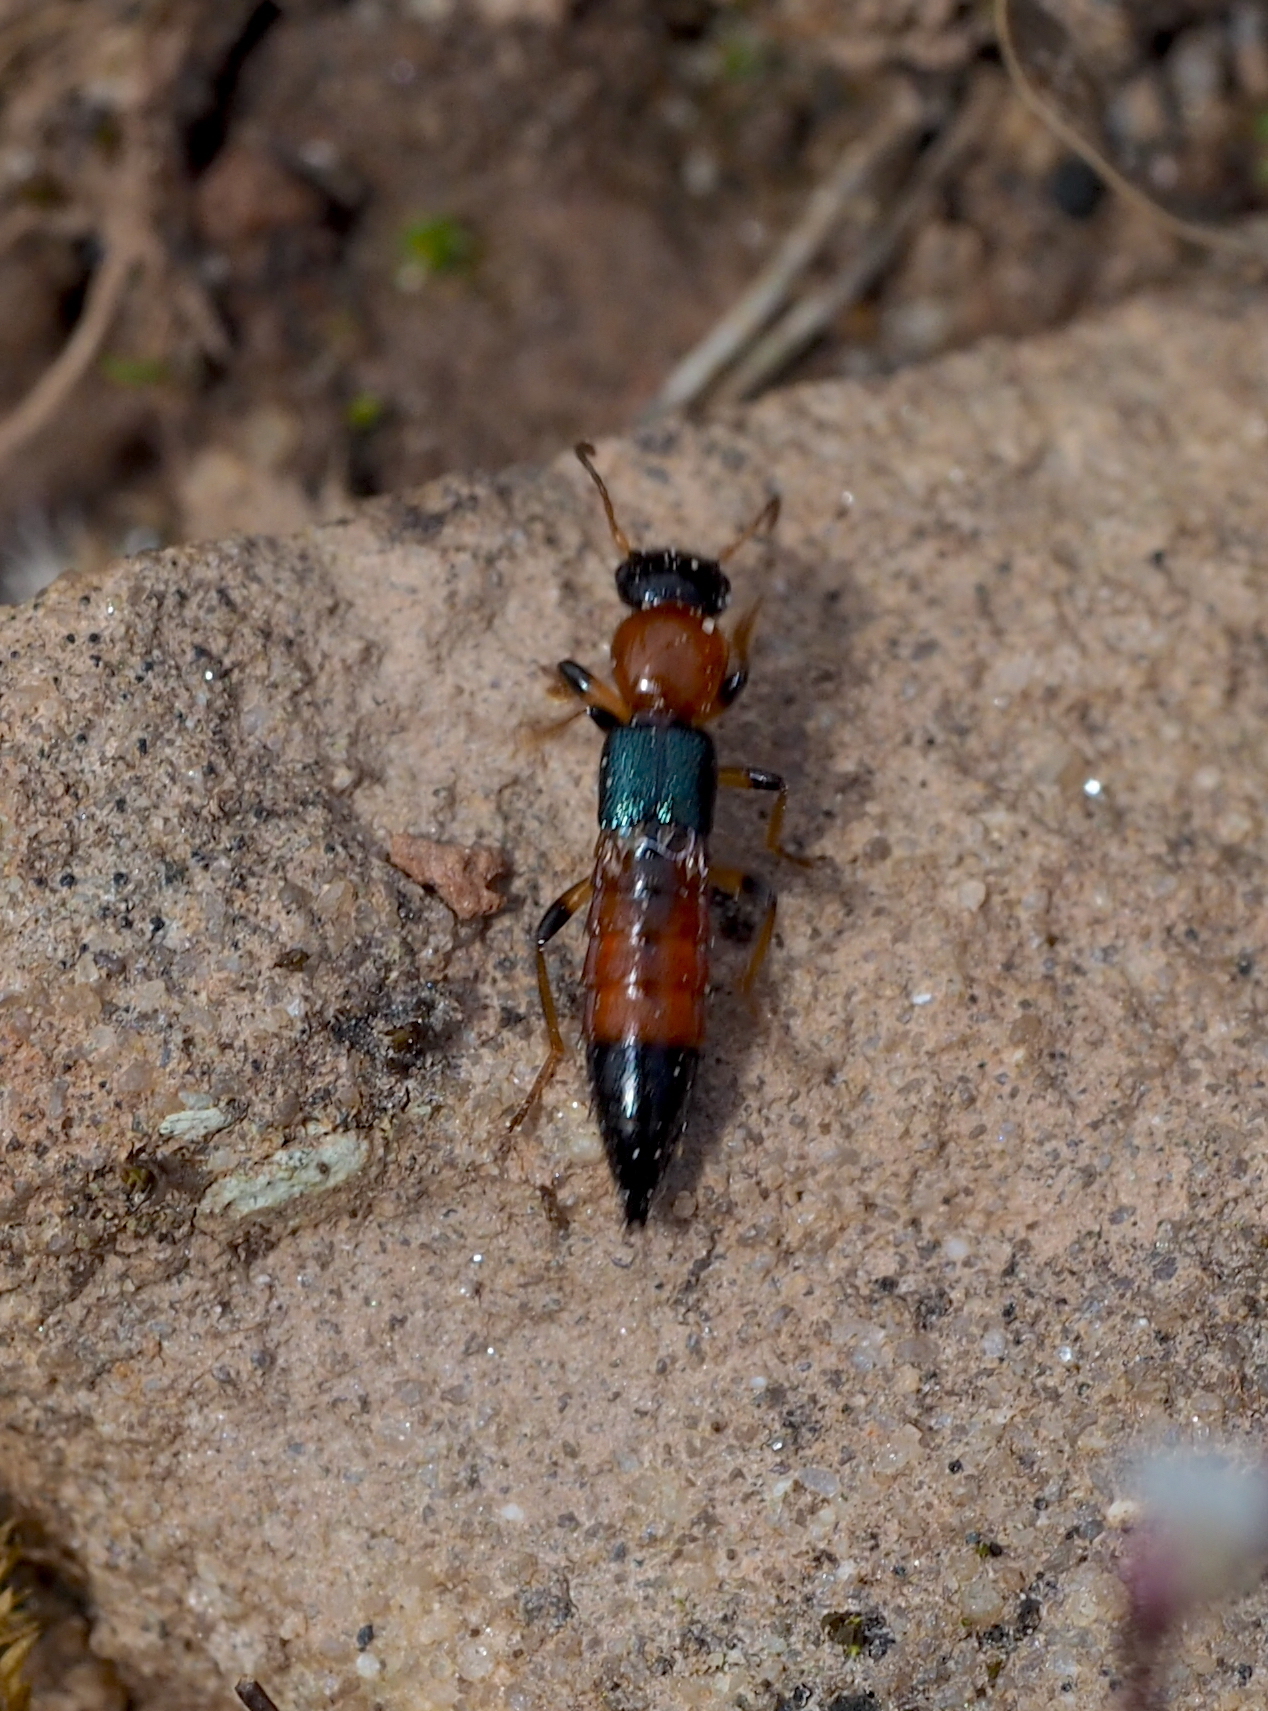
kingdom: Animalia
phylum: Arthropoda
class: Insecta
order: Coleoptera
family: Staphylinidae
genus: Paederus
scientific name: Paederus littoralis
